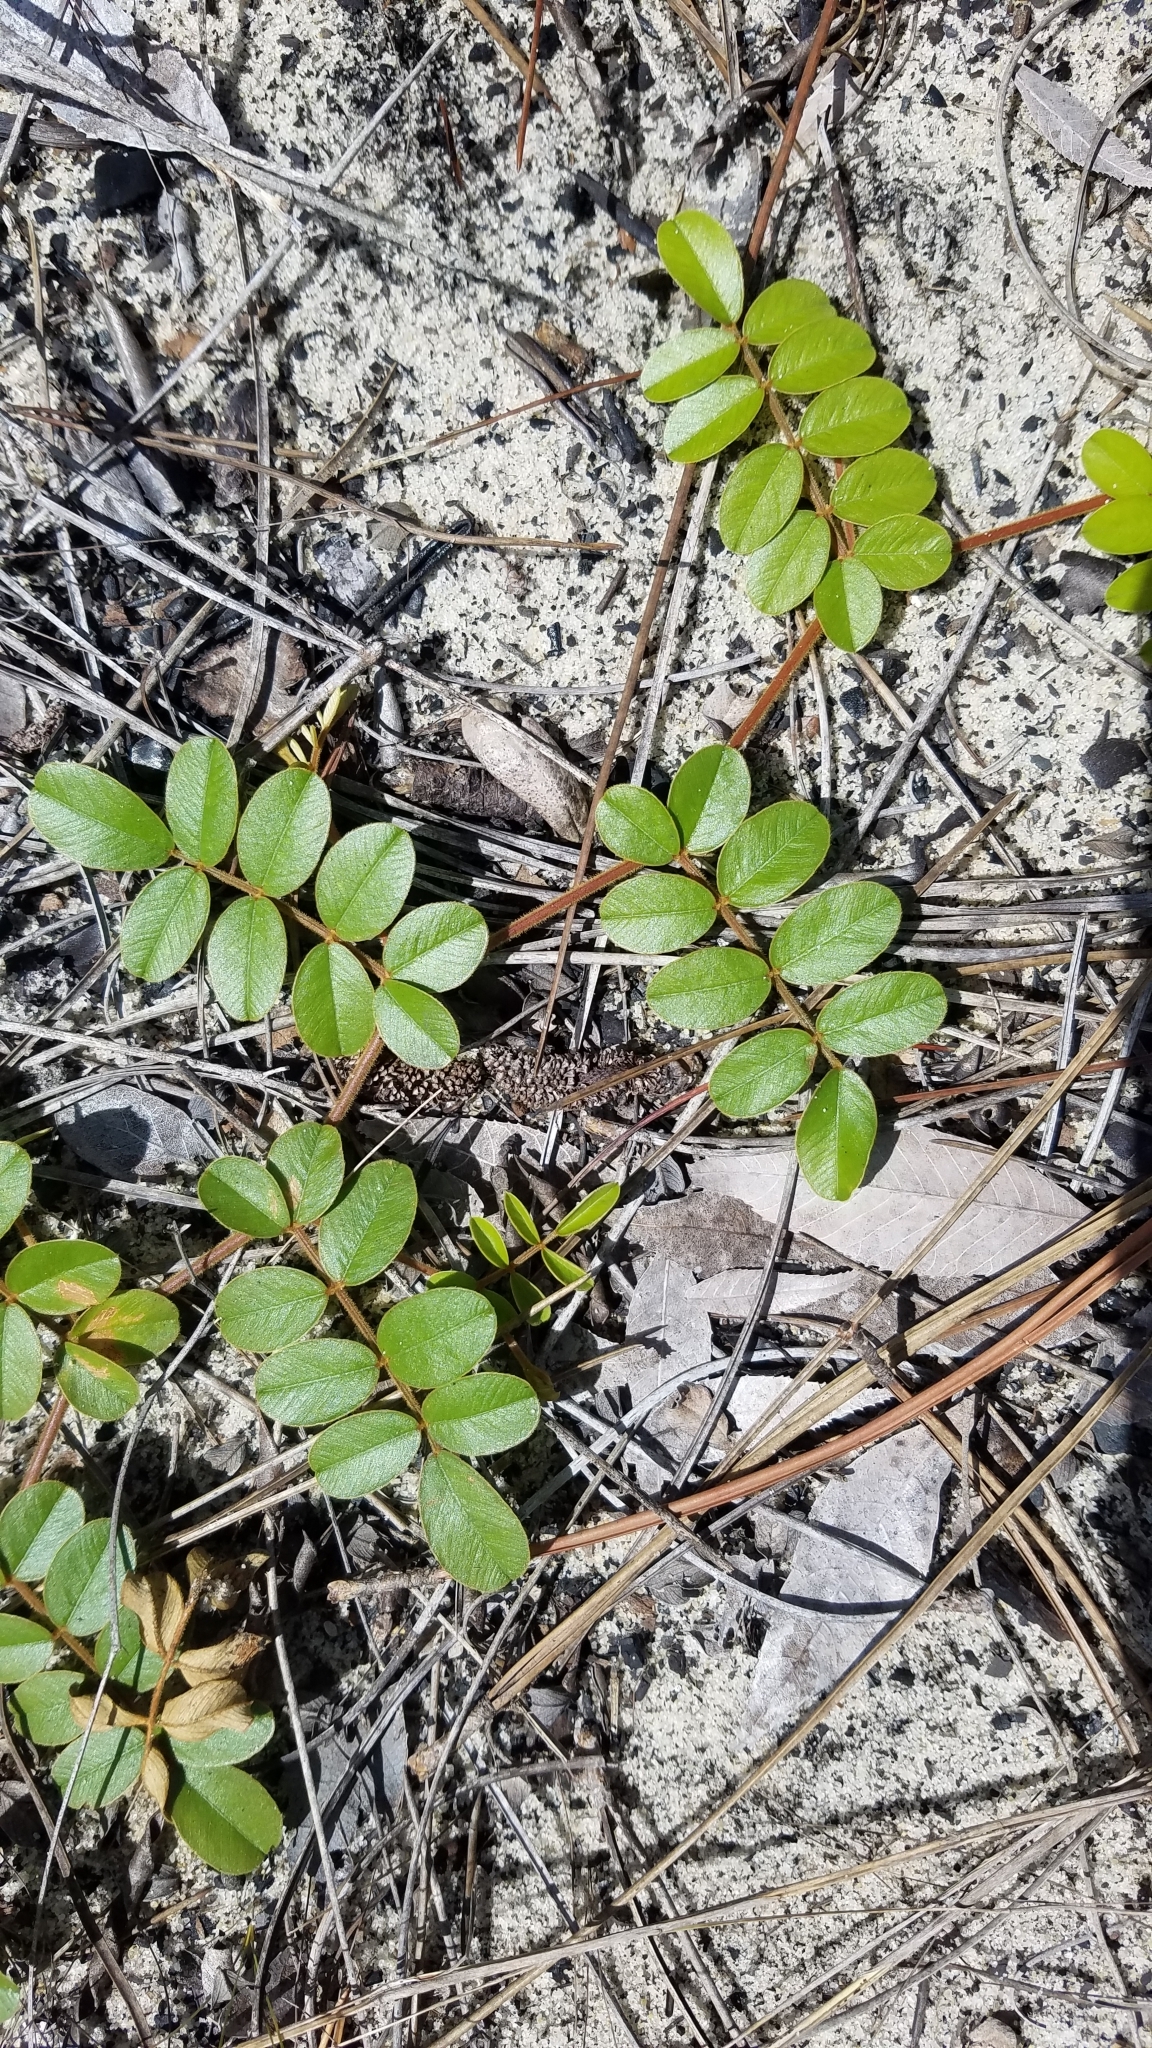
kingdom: Plantae
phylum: Tracheophyta
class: Magnoliopsida
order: Fabales
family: Fabaceae
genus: Tephrosia
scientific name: Tephrosia mysteriosa
